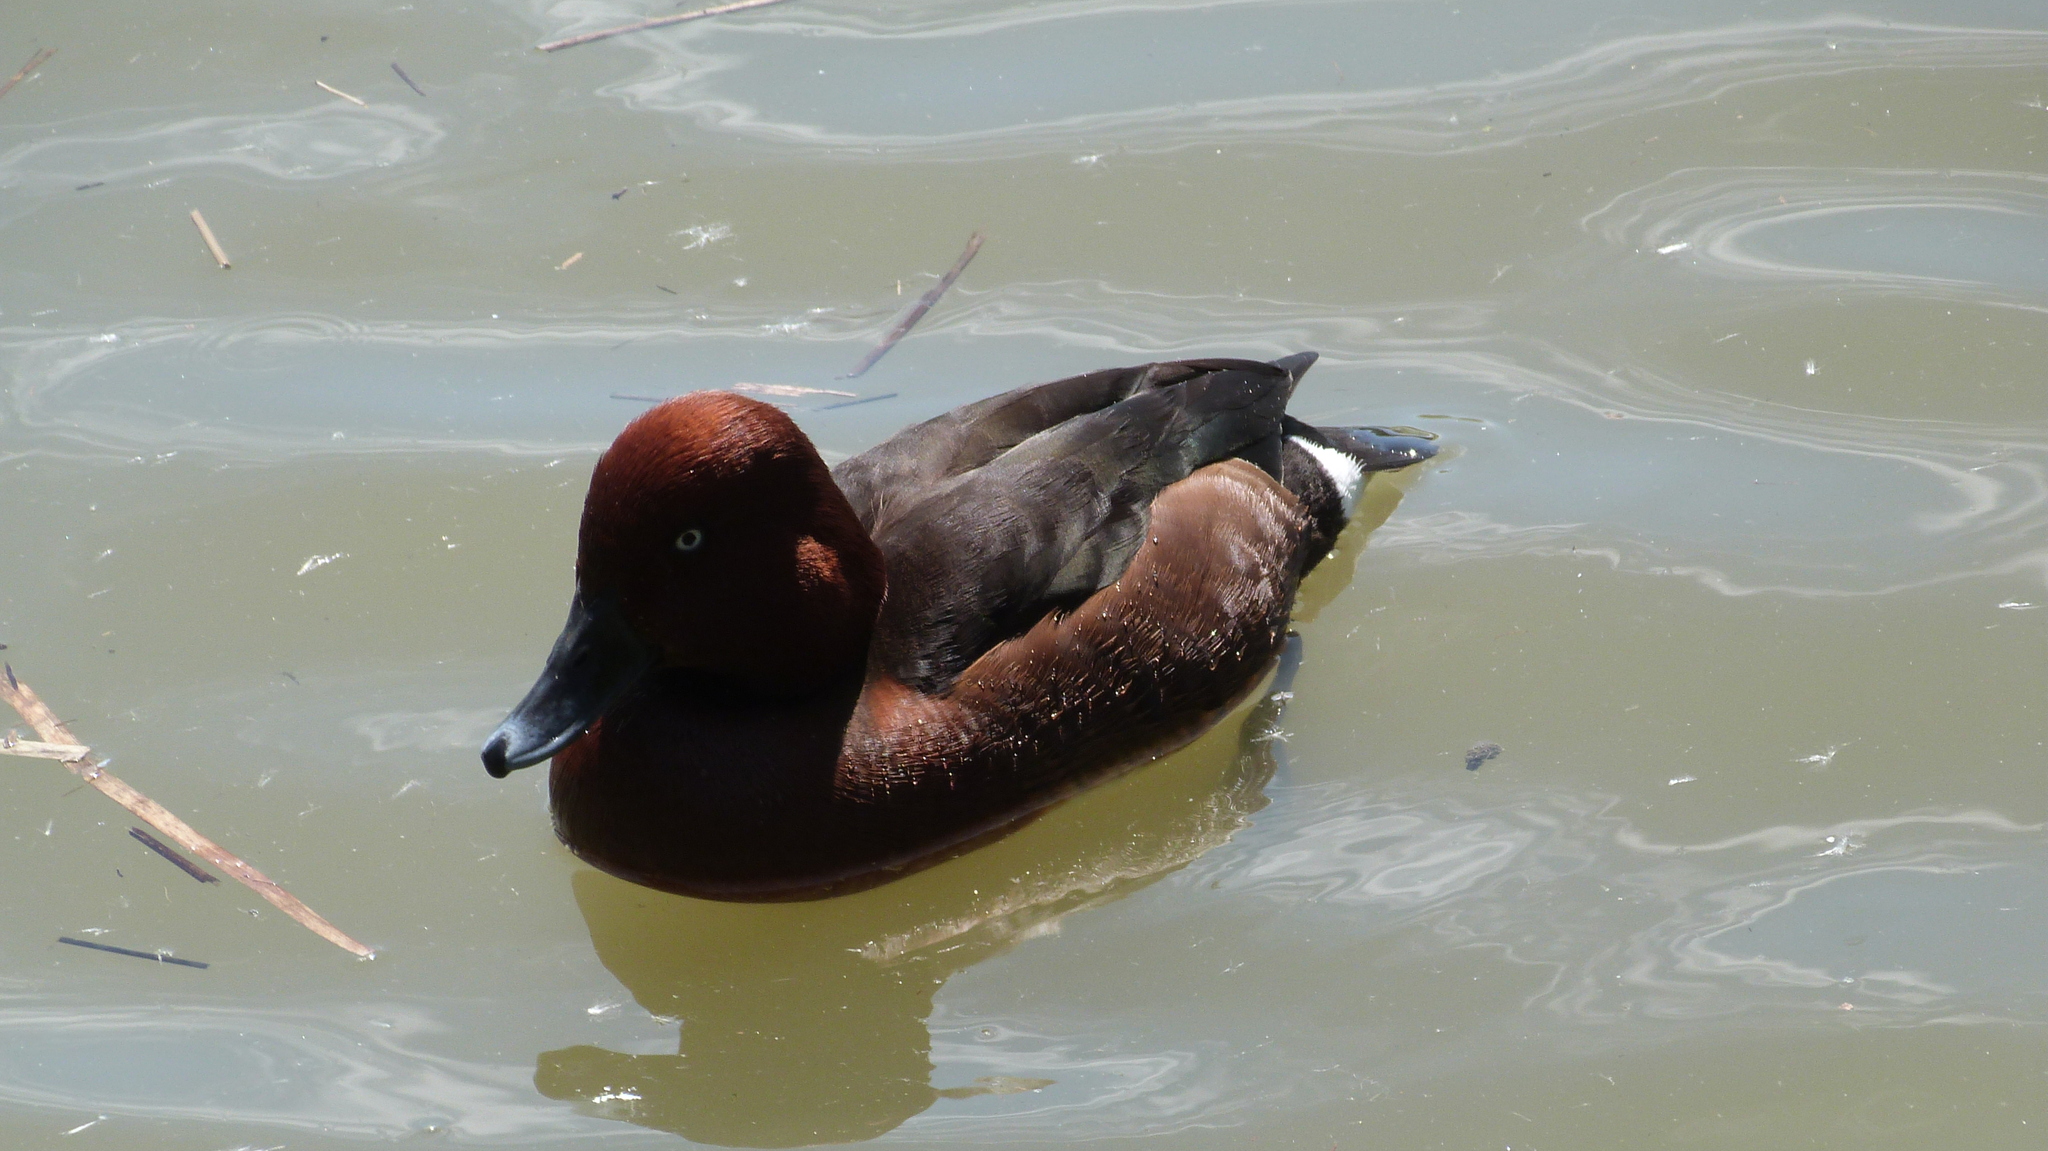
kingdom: Animalia
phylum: Chordata
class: Aves
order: Anseriformes
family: Anatidae
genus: Aythya
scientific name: Aythya nyroca
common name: Ferruginous duck
